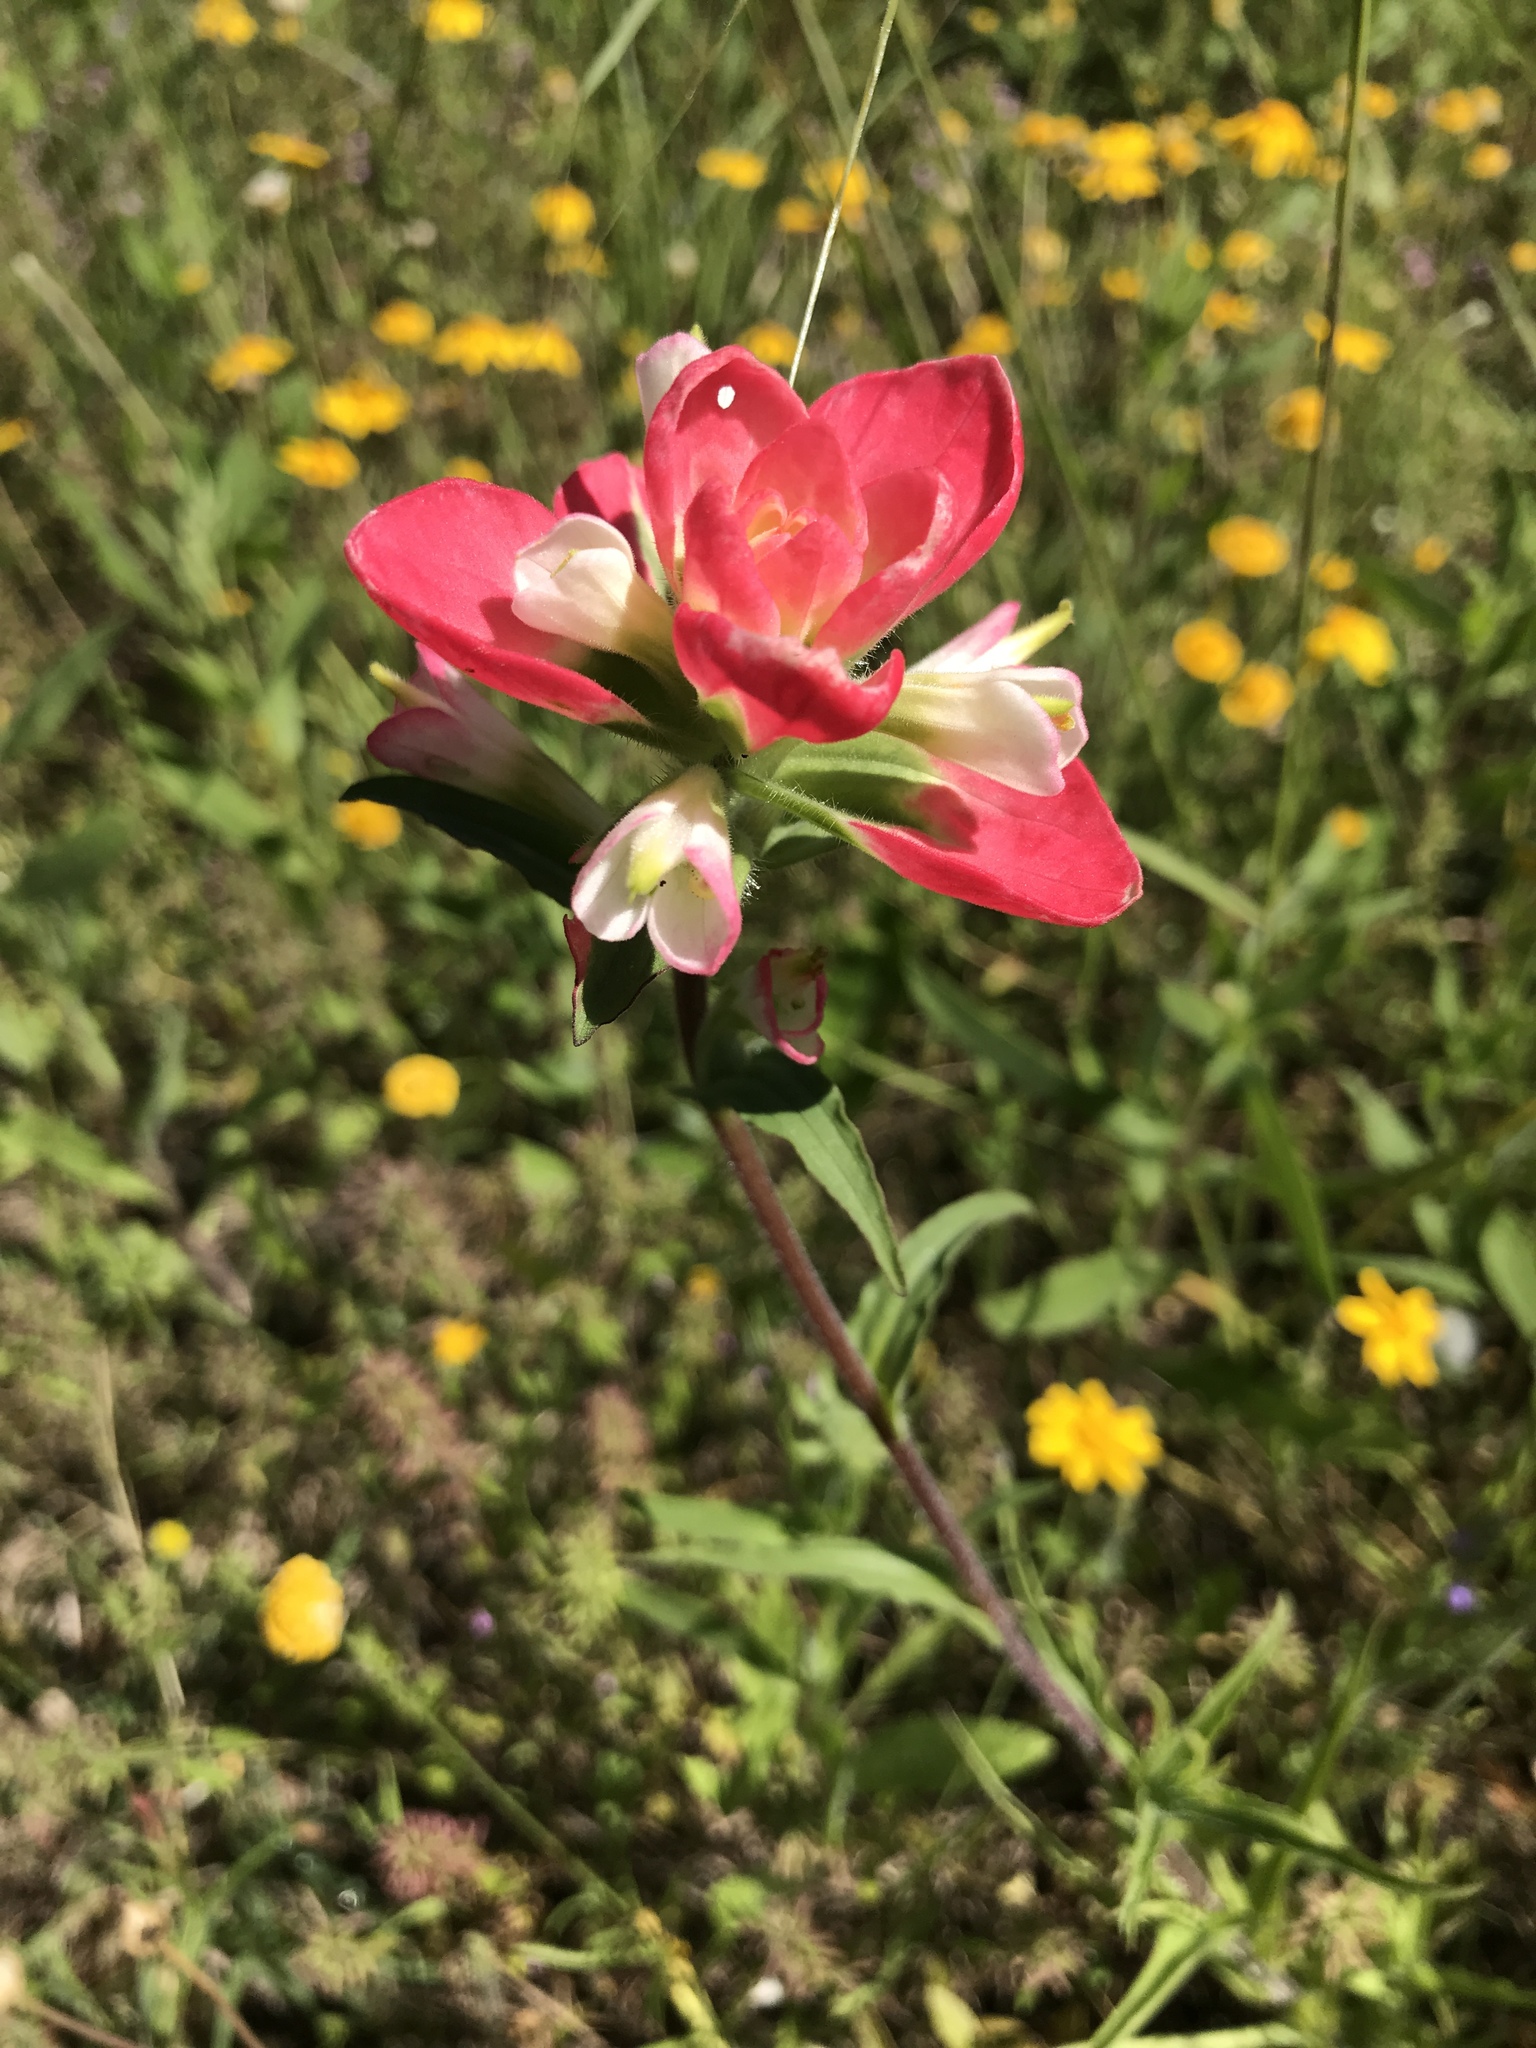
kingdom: Plantae
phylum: Tracheophyta
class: Magnoliopsida
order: Lamiales
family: Orobanchaceae
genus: Castilleja
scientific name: Castilleja indivisa
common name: Texas paintbrush
